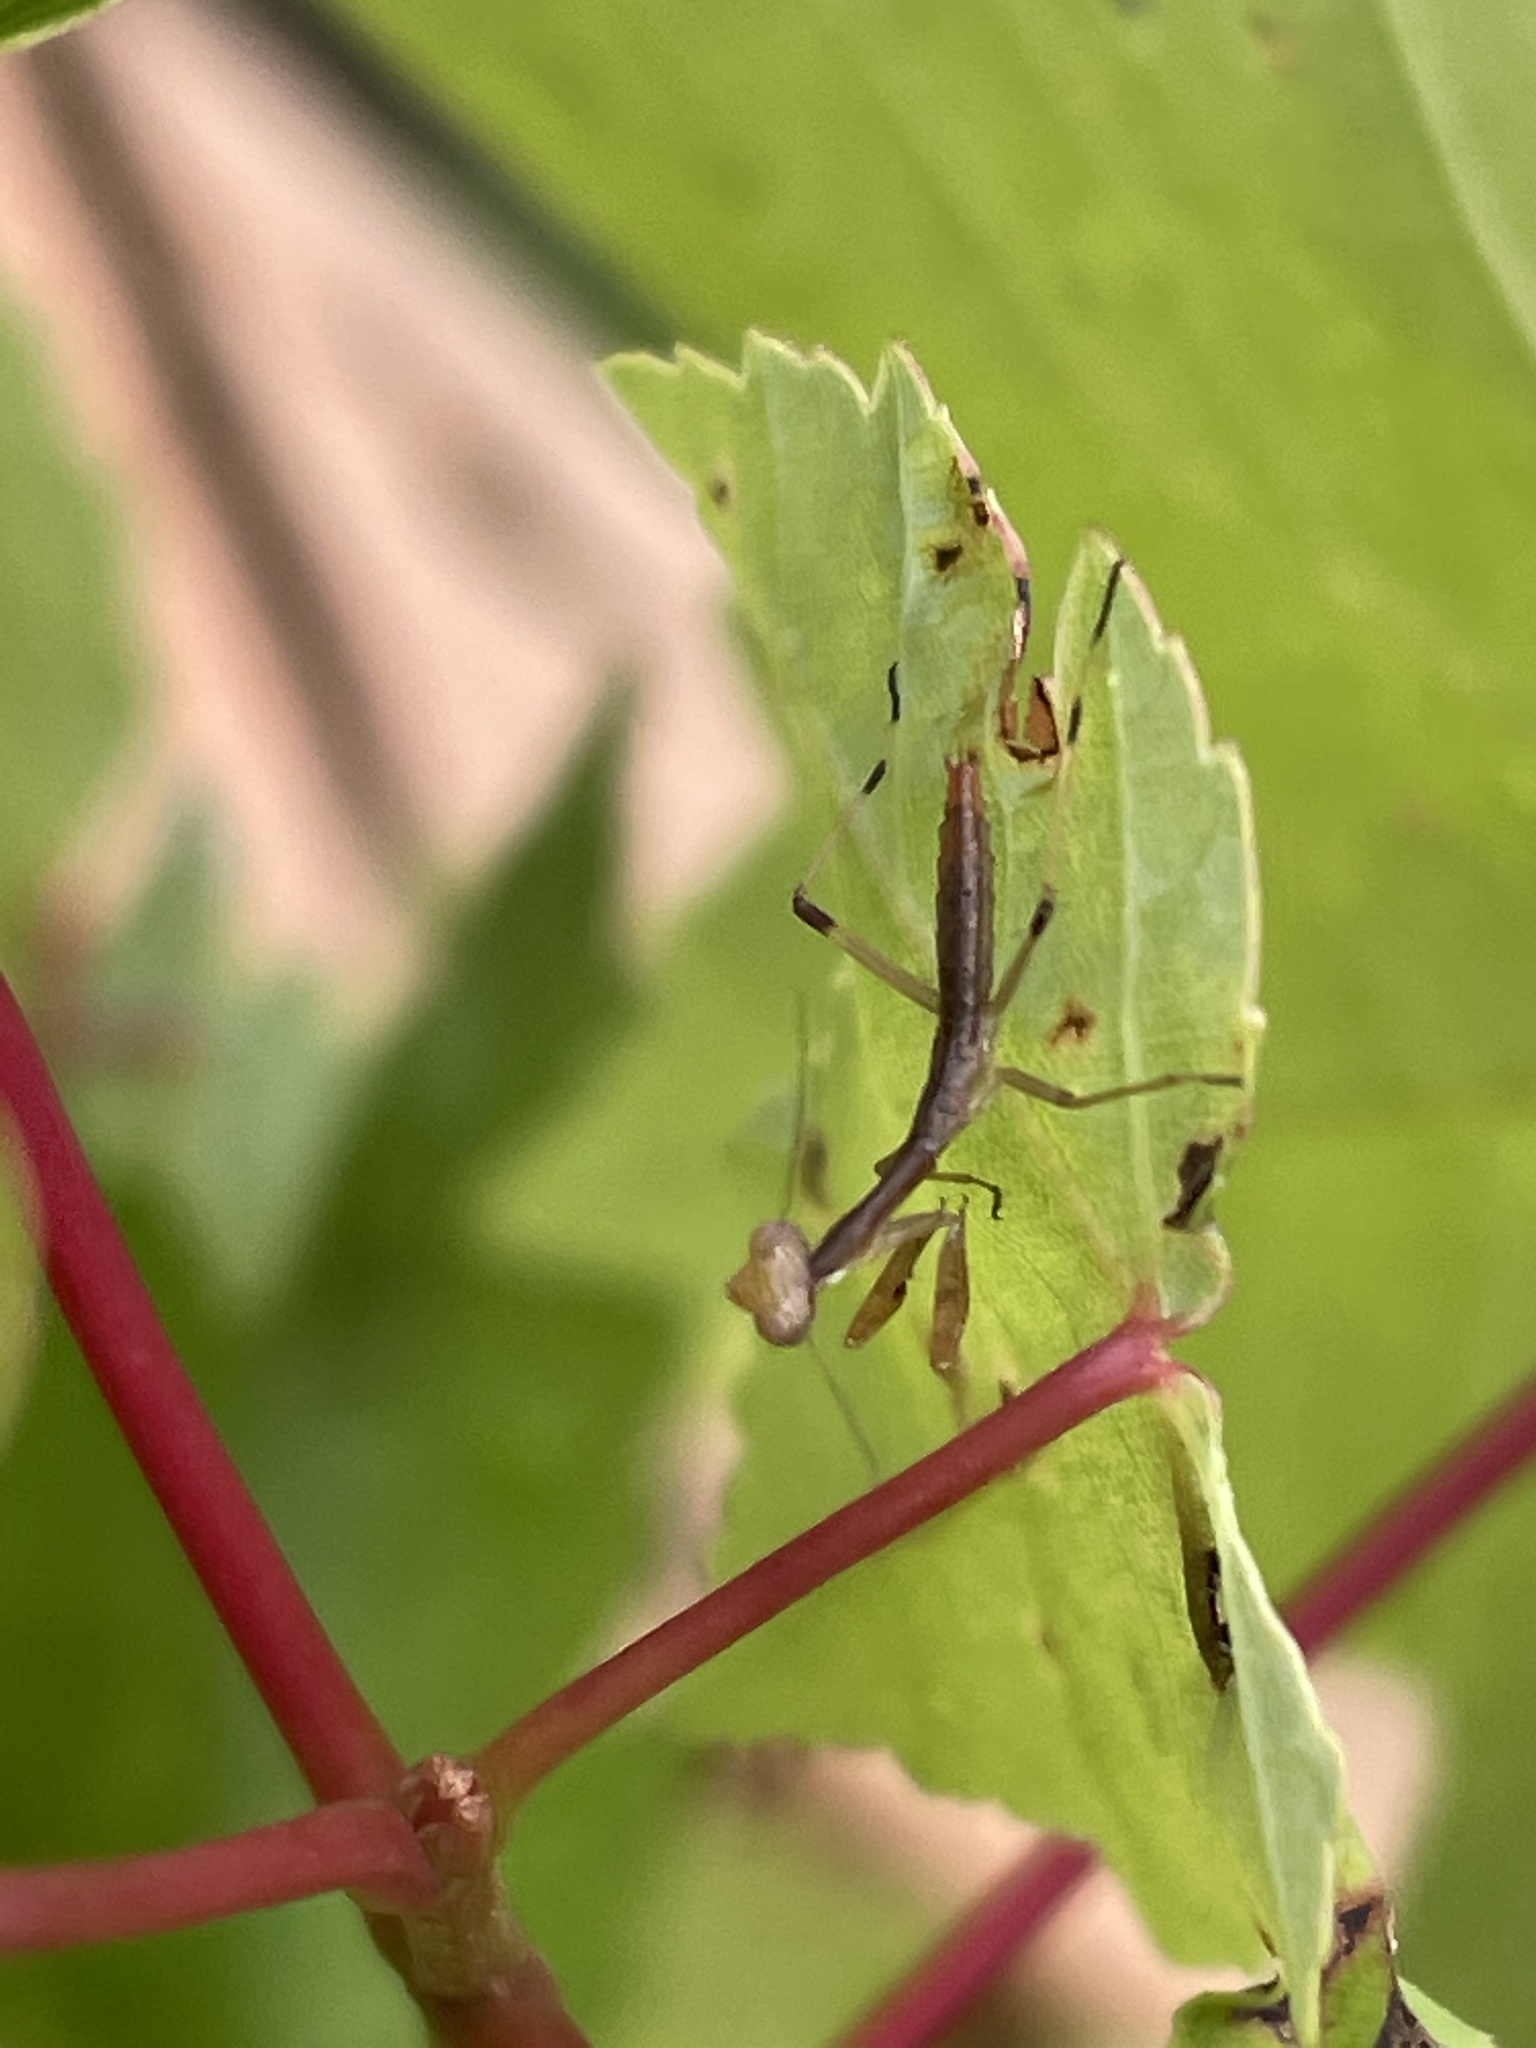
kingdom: Animalia
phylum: Arthropoda
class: Insecta
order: Mantodea
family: Mantidae
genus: Stagmomantis
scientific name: Stagmomantis carolina
